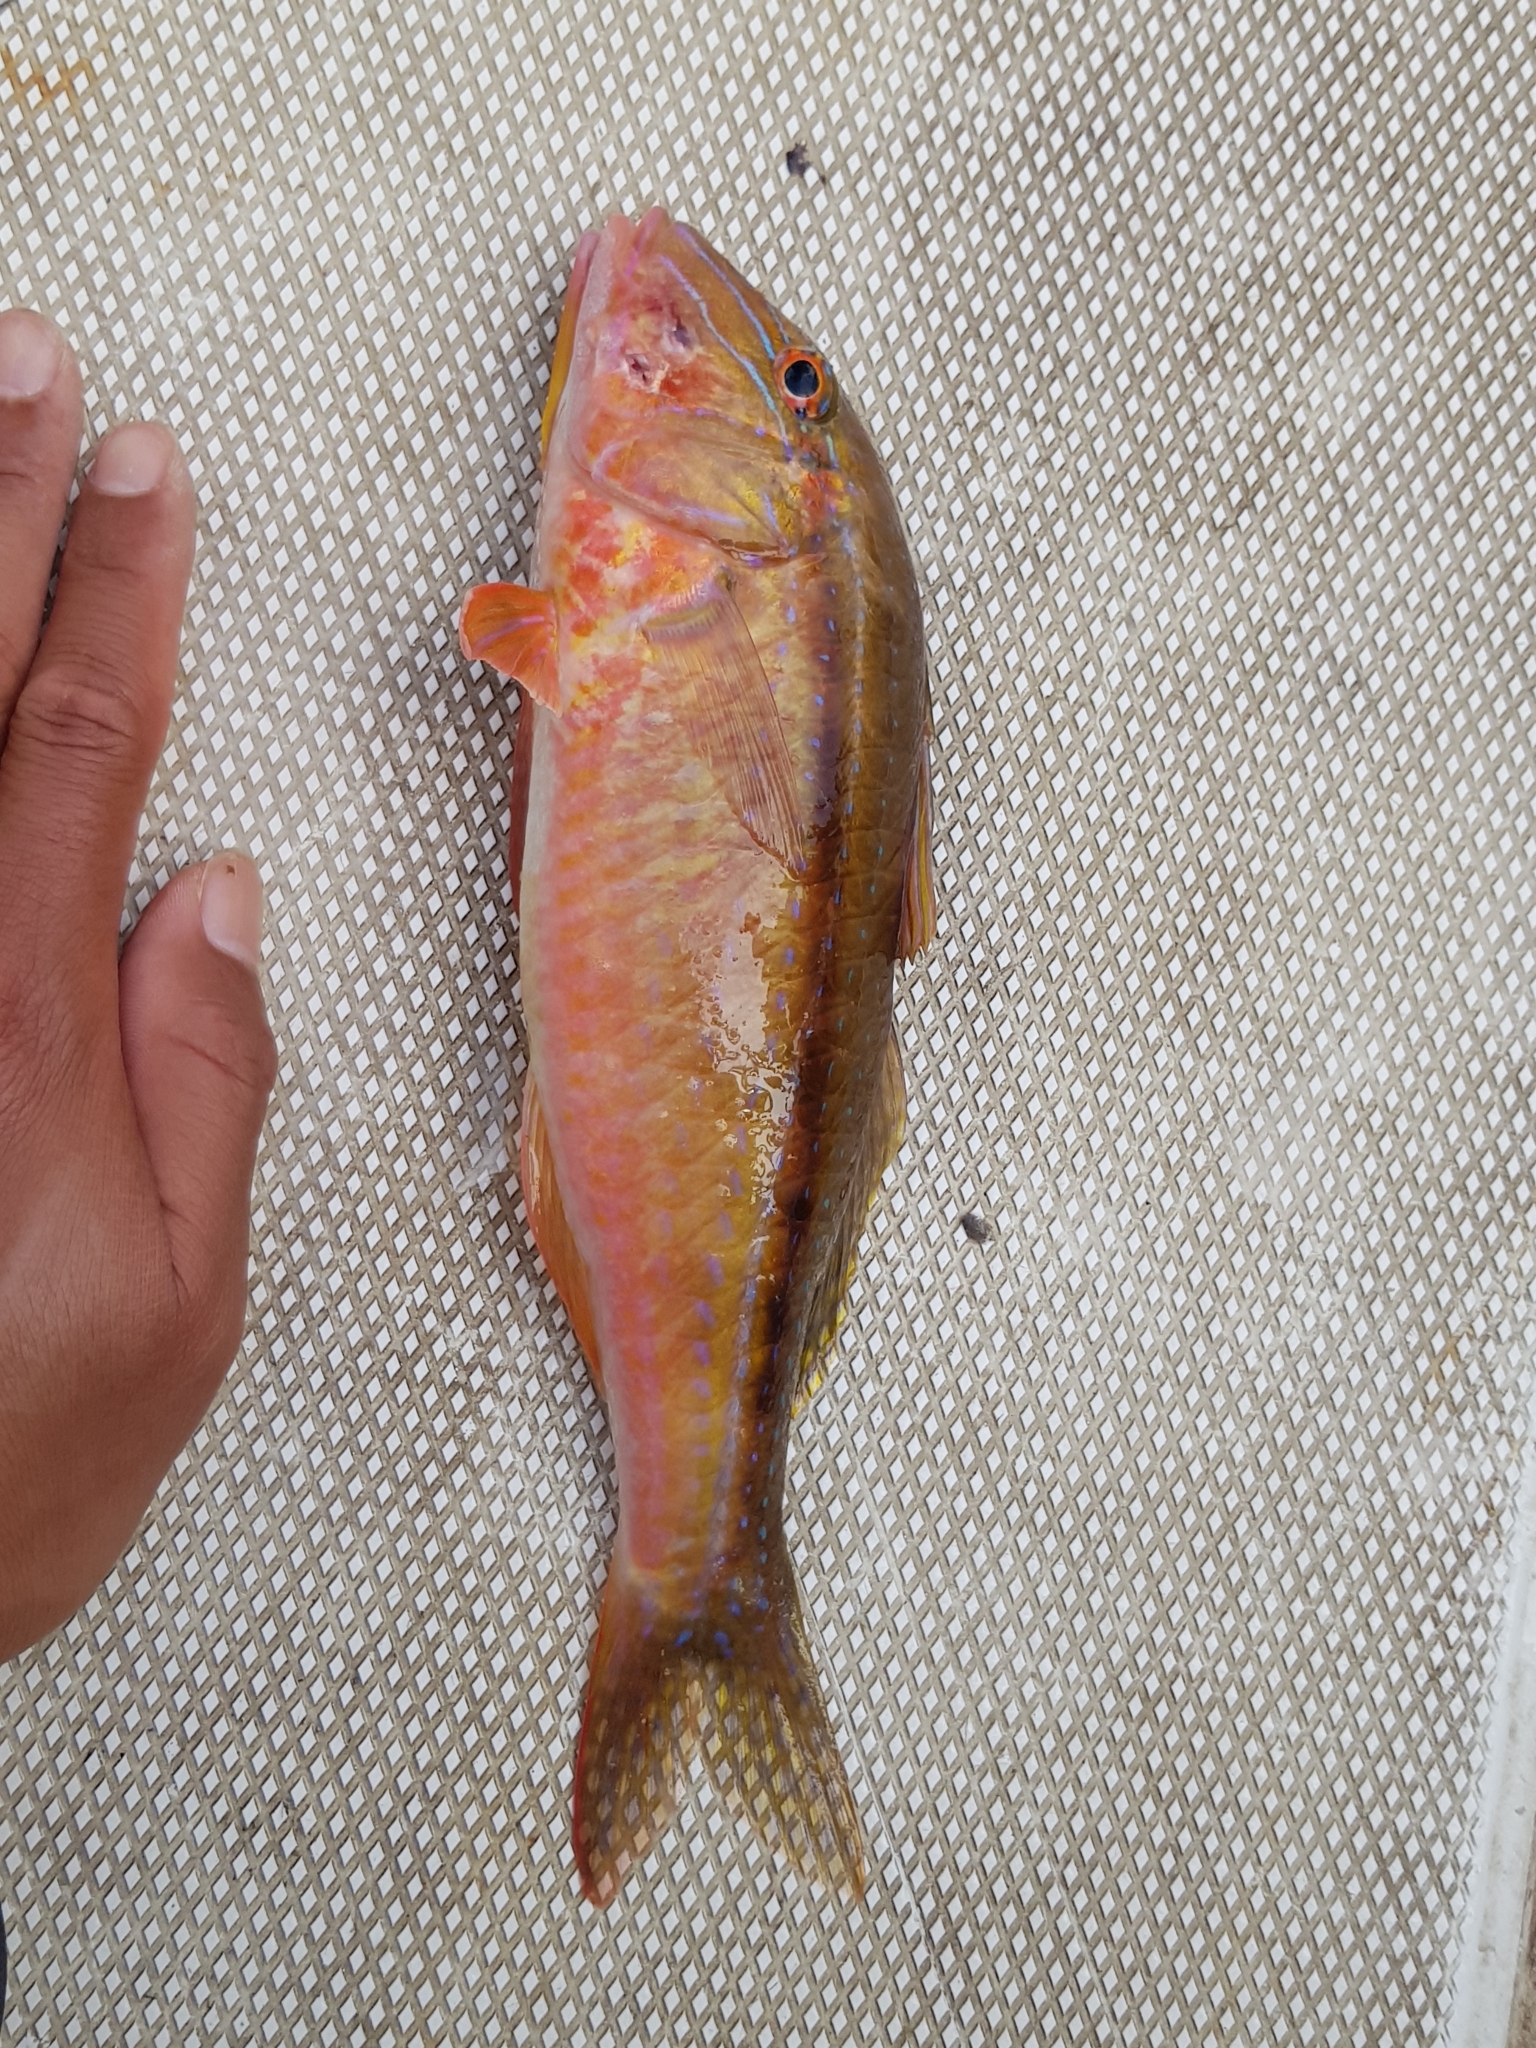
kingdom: Animalia
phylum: Chordata
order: Perciformes
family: Mullidae
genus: Upeneichthys
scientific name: Upeneichthys vlamingii
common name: Red mullet
